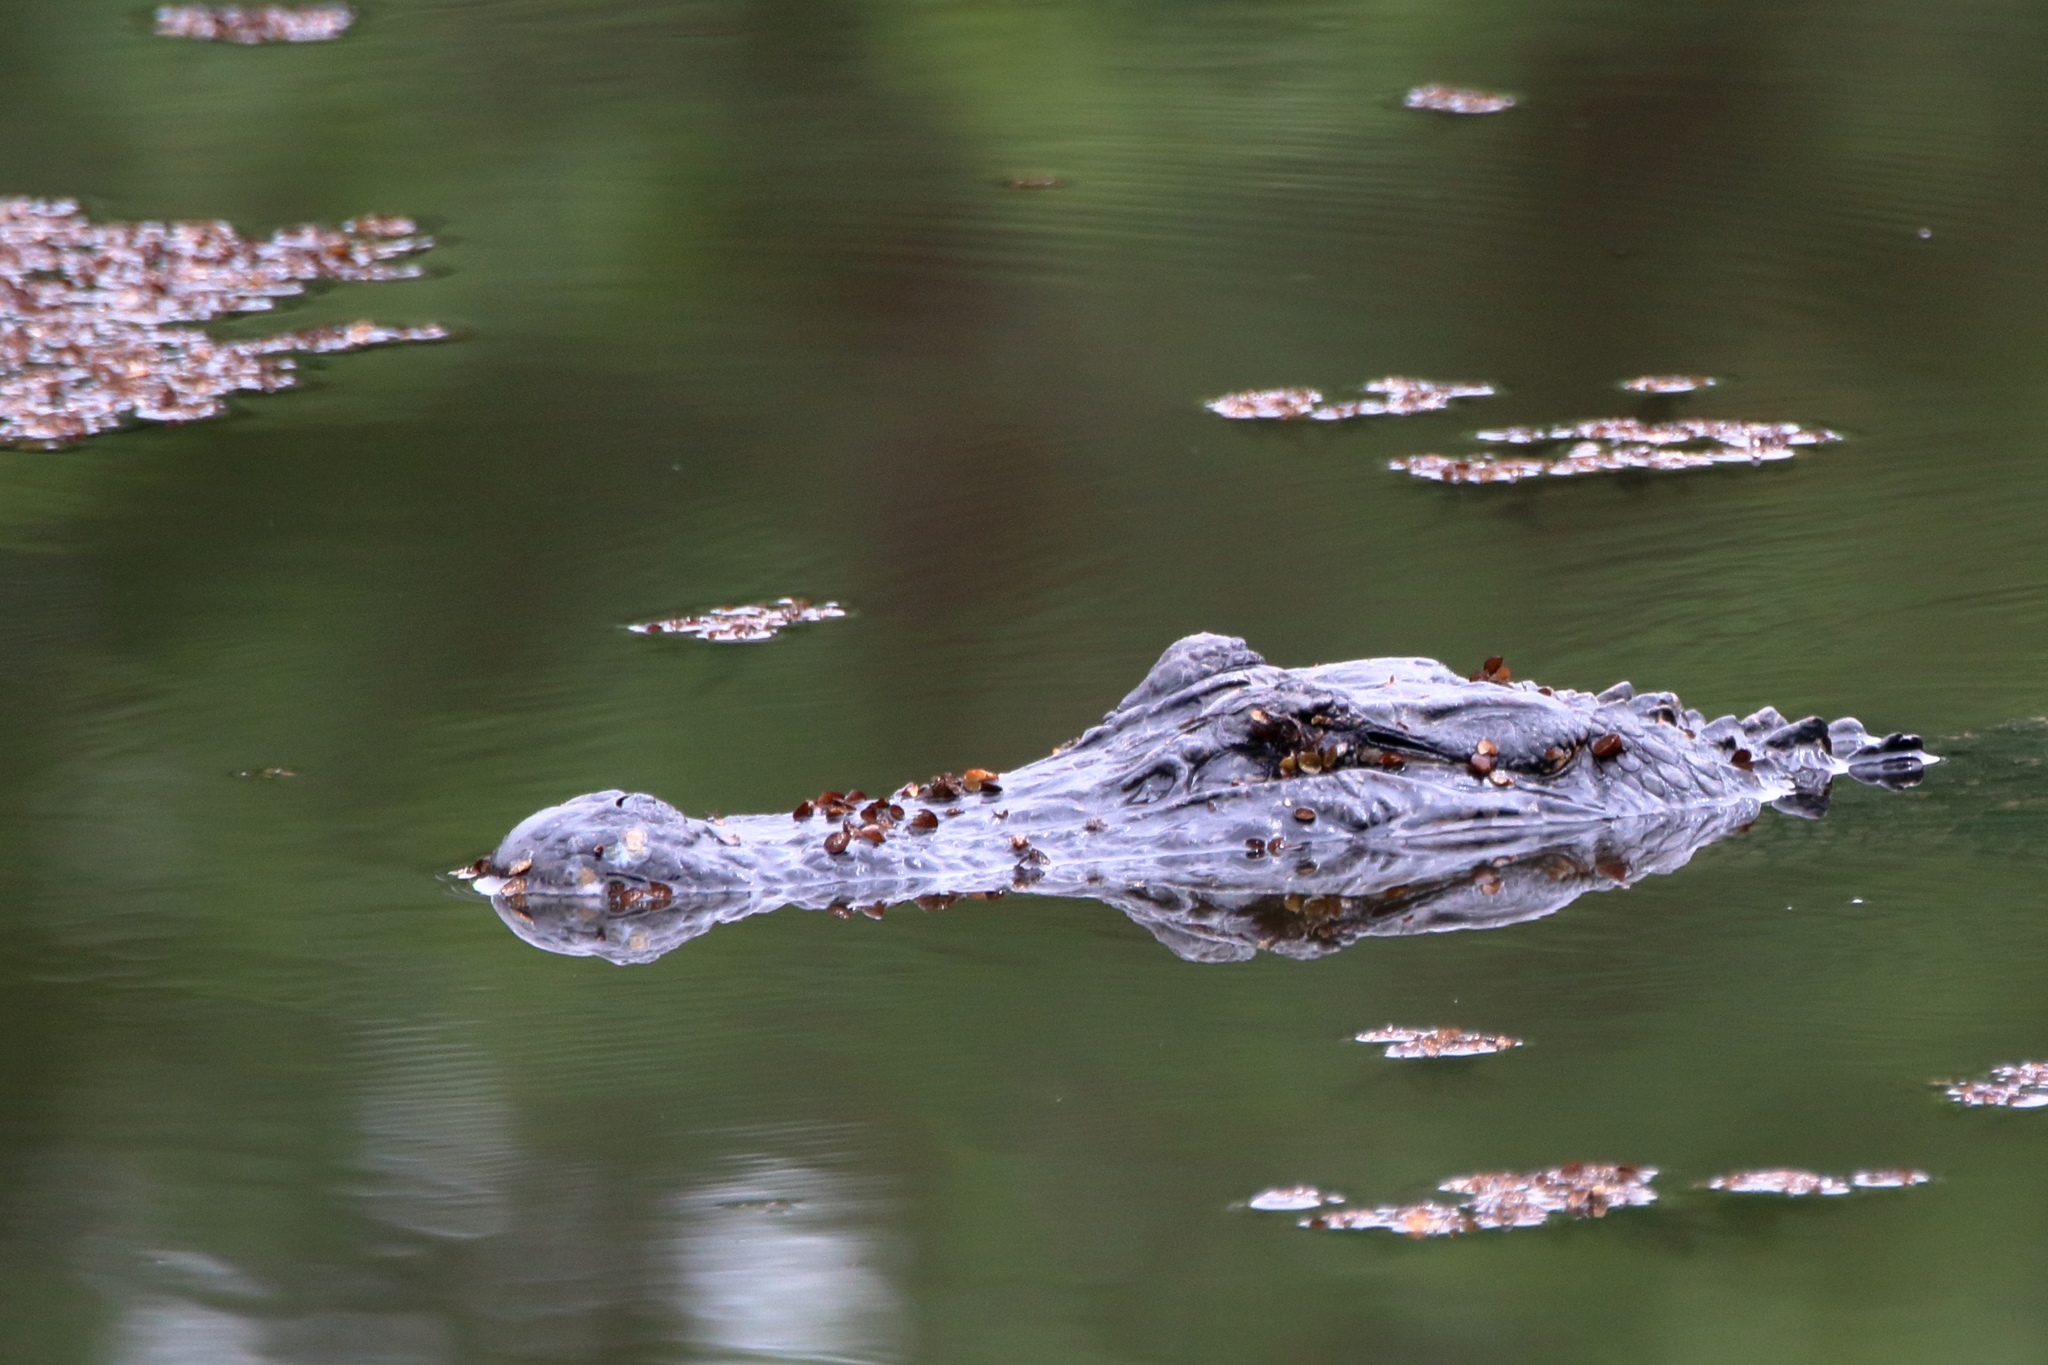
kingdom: Animalia
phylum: Chordata
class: Crocodylia
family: Alligatoridae
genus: Alligator
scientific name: Alligator mississippiensis
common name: American alligator
